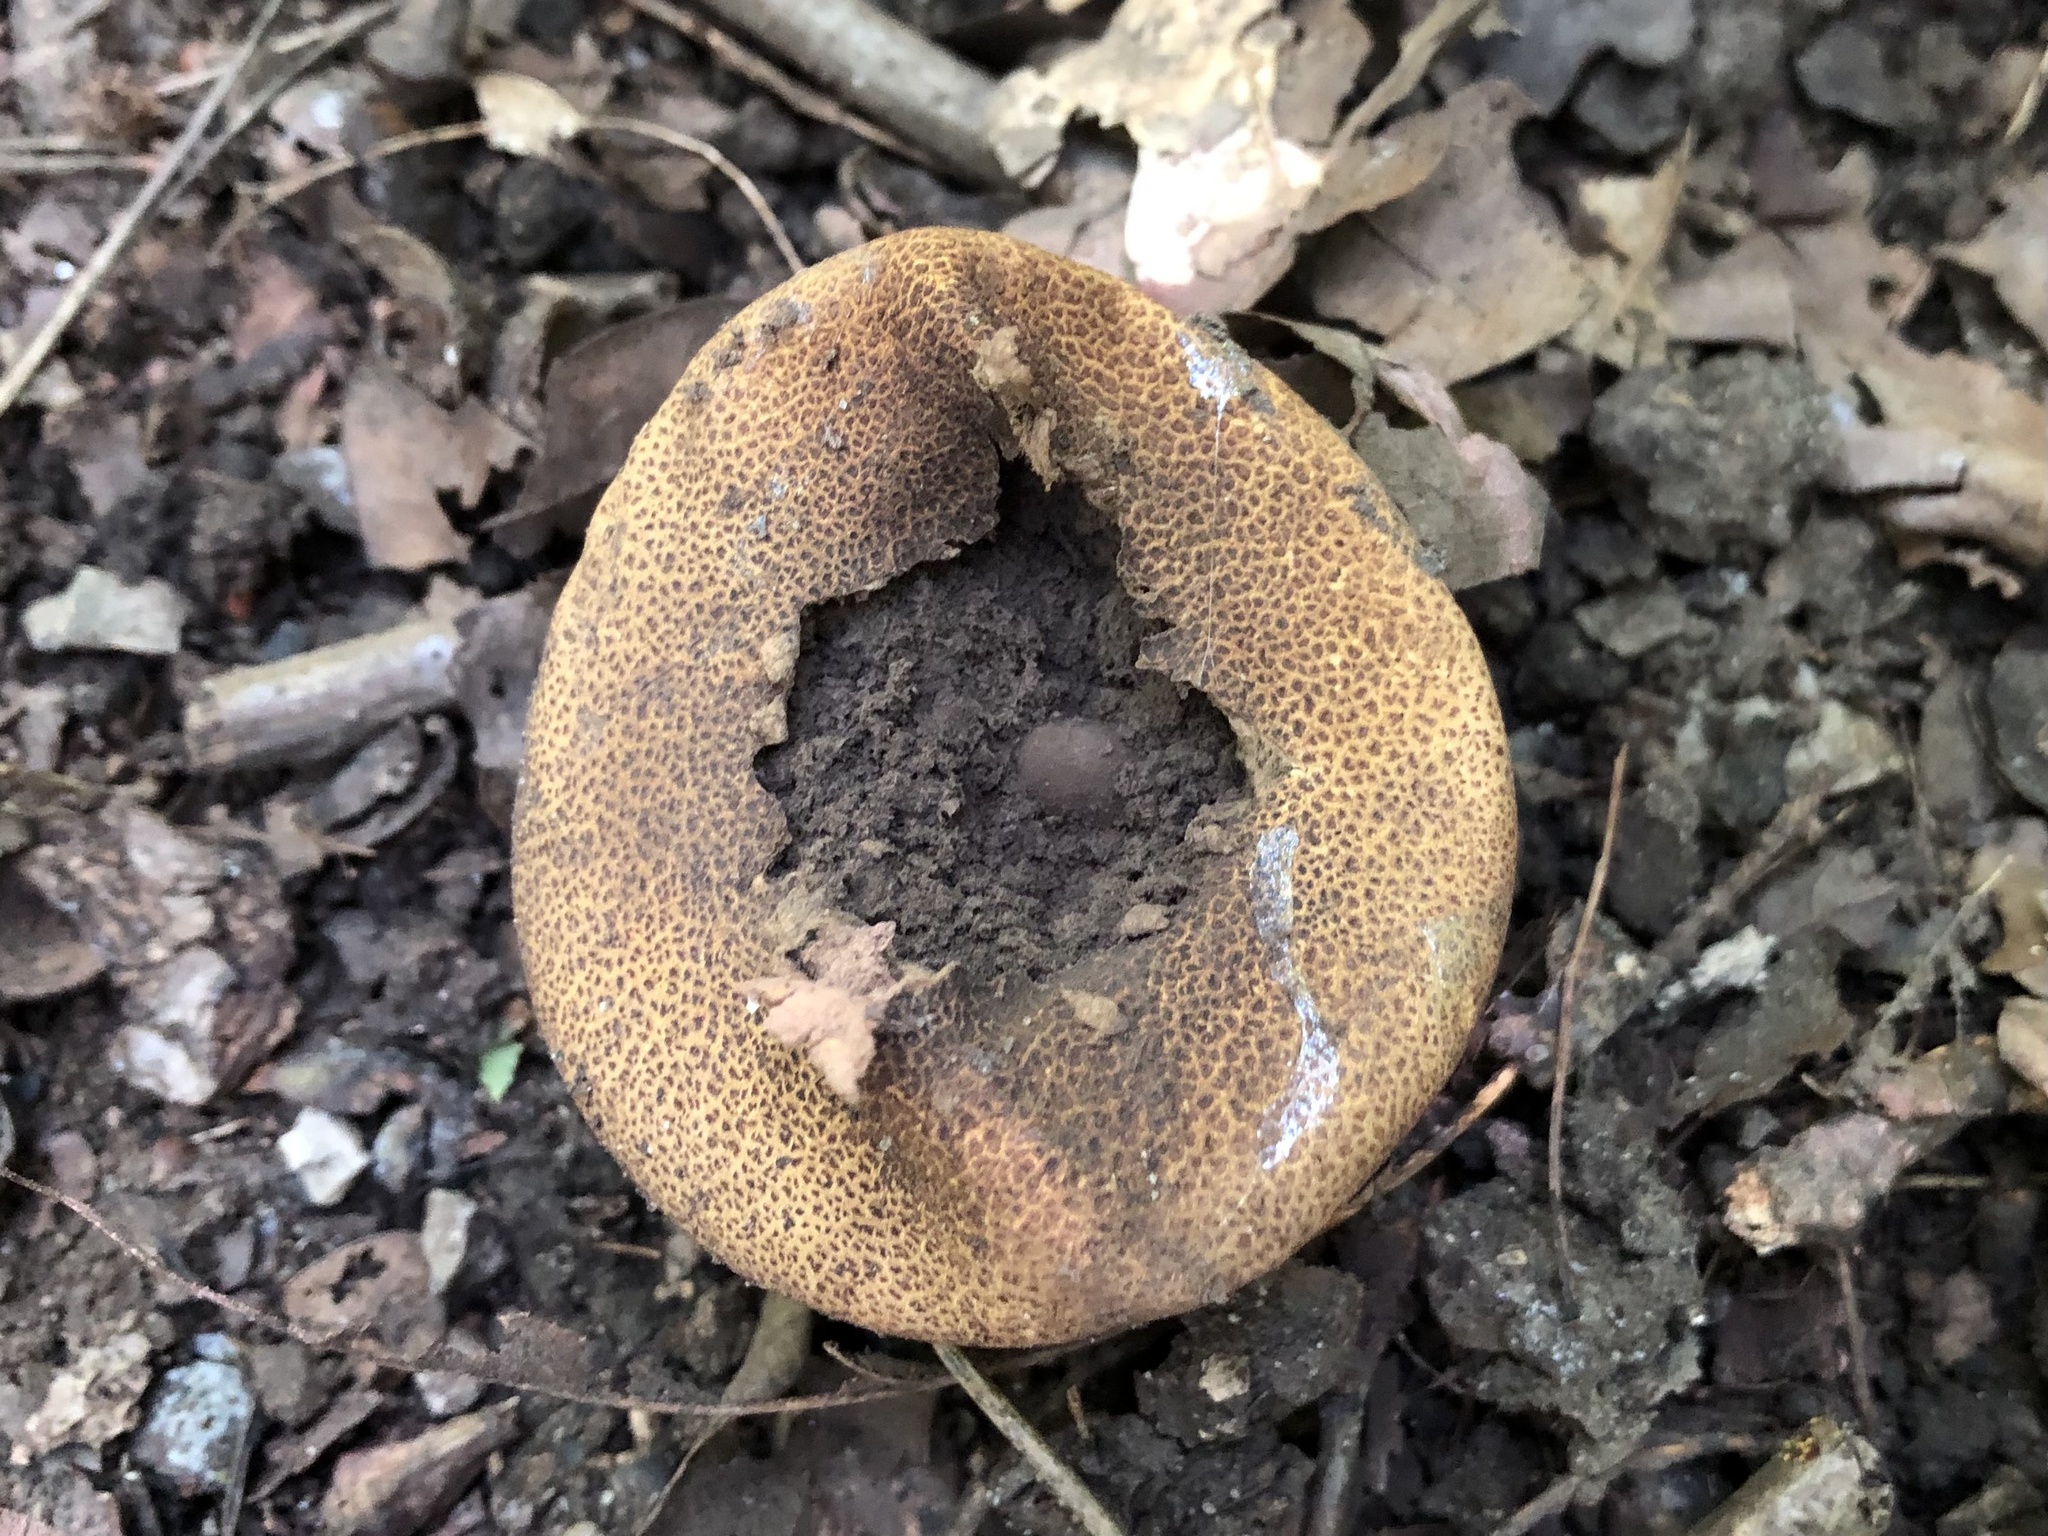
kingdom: Fungi
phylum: Basidiomycota
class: Agaricomycetes
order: Boletales
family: Sclerodermataceae
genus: Scleroderma
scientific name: Scleroderma citrinum
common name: Common earthball
